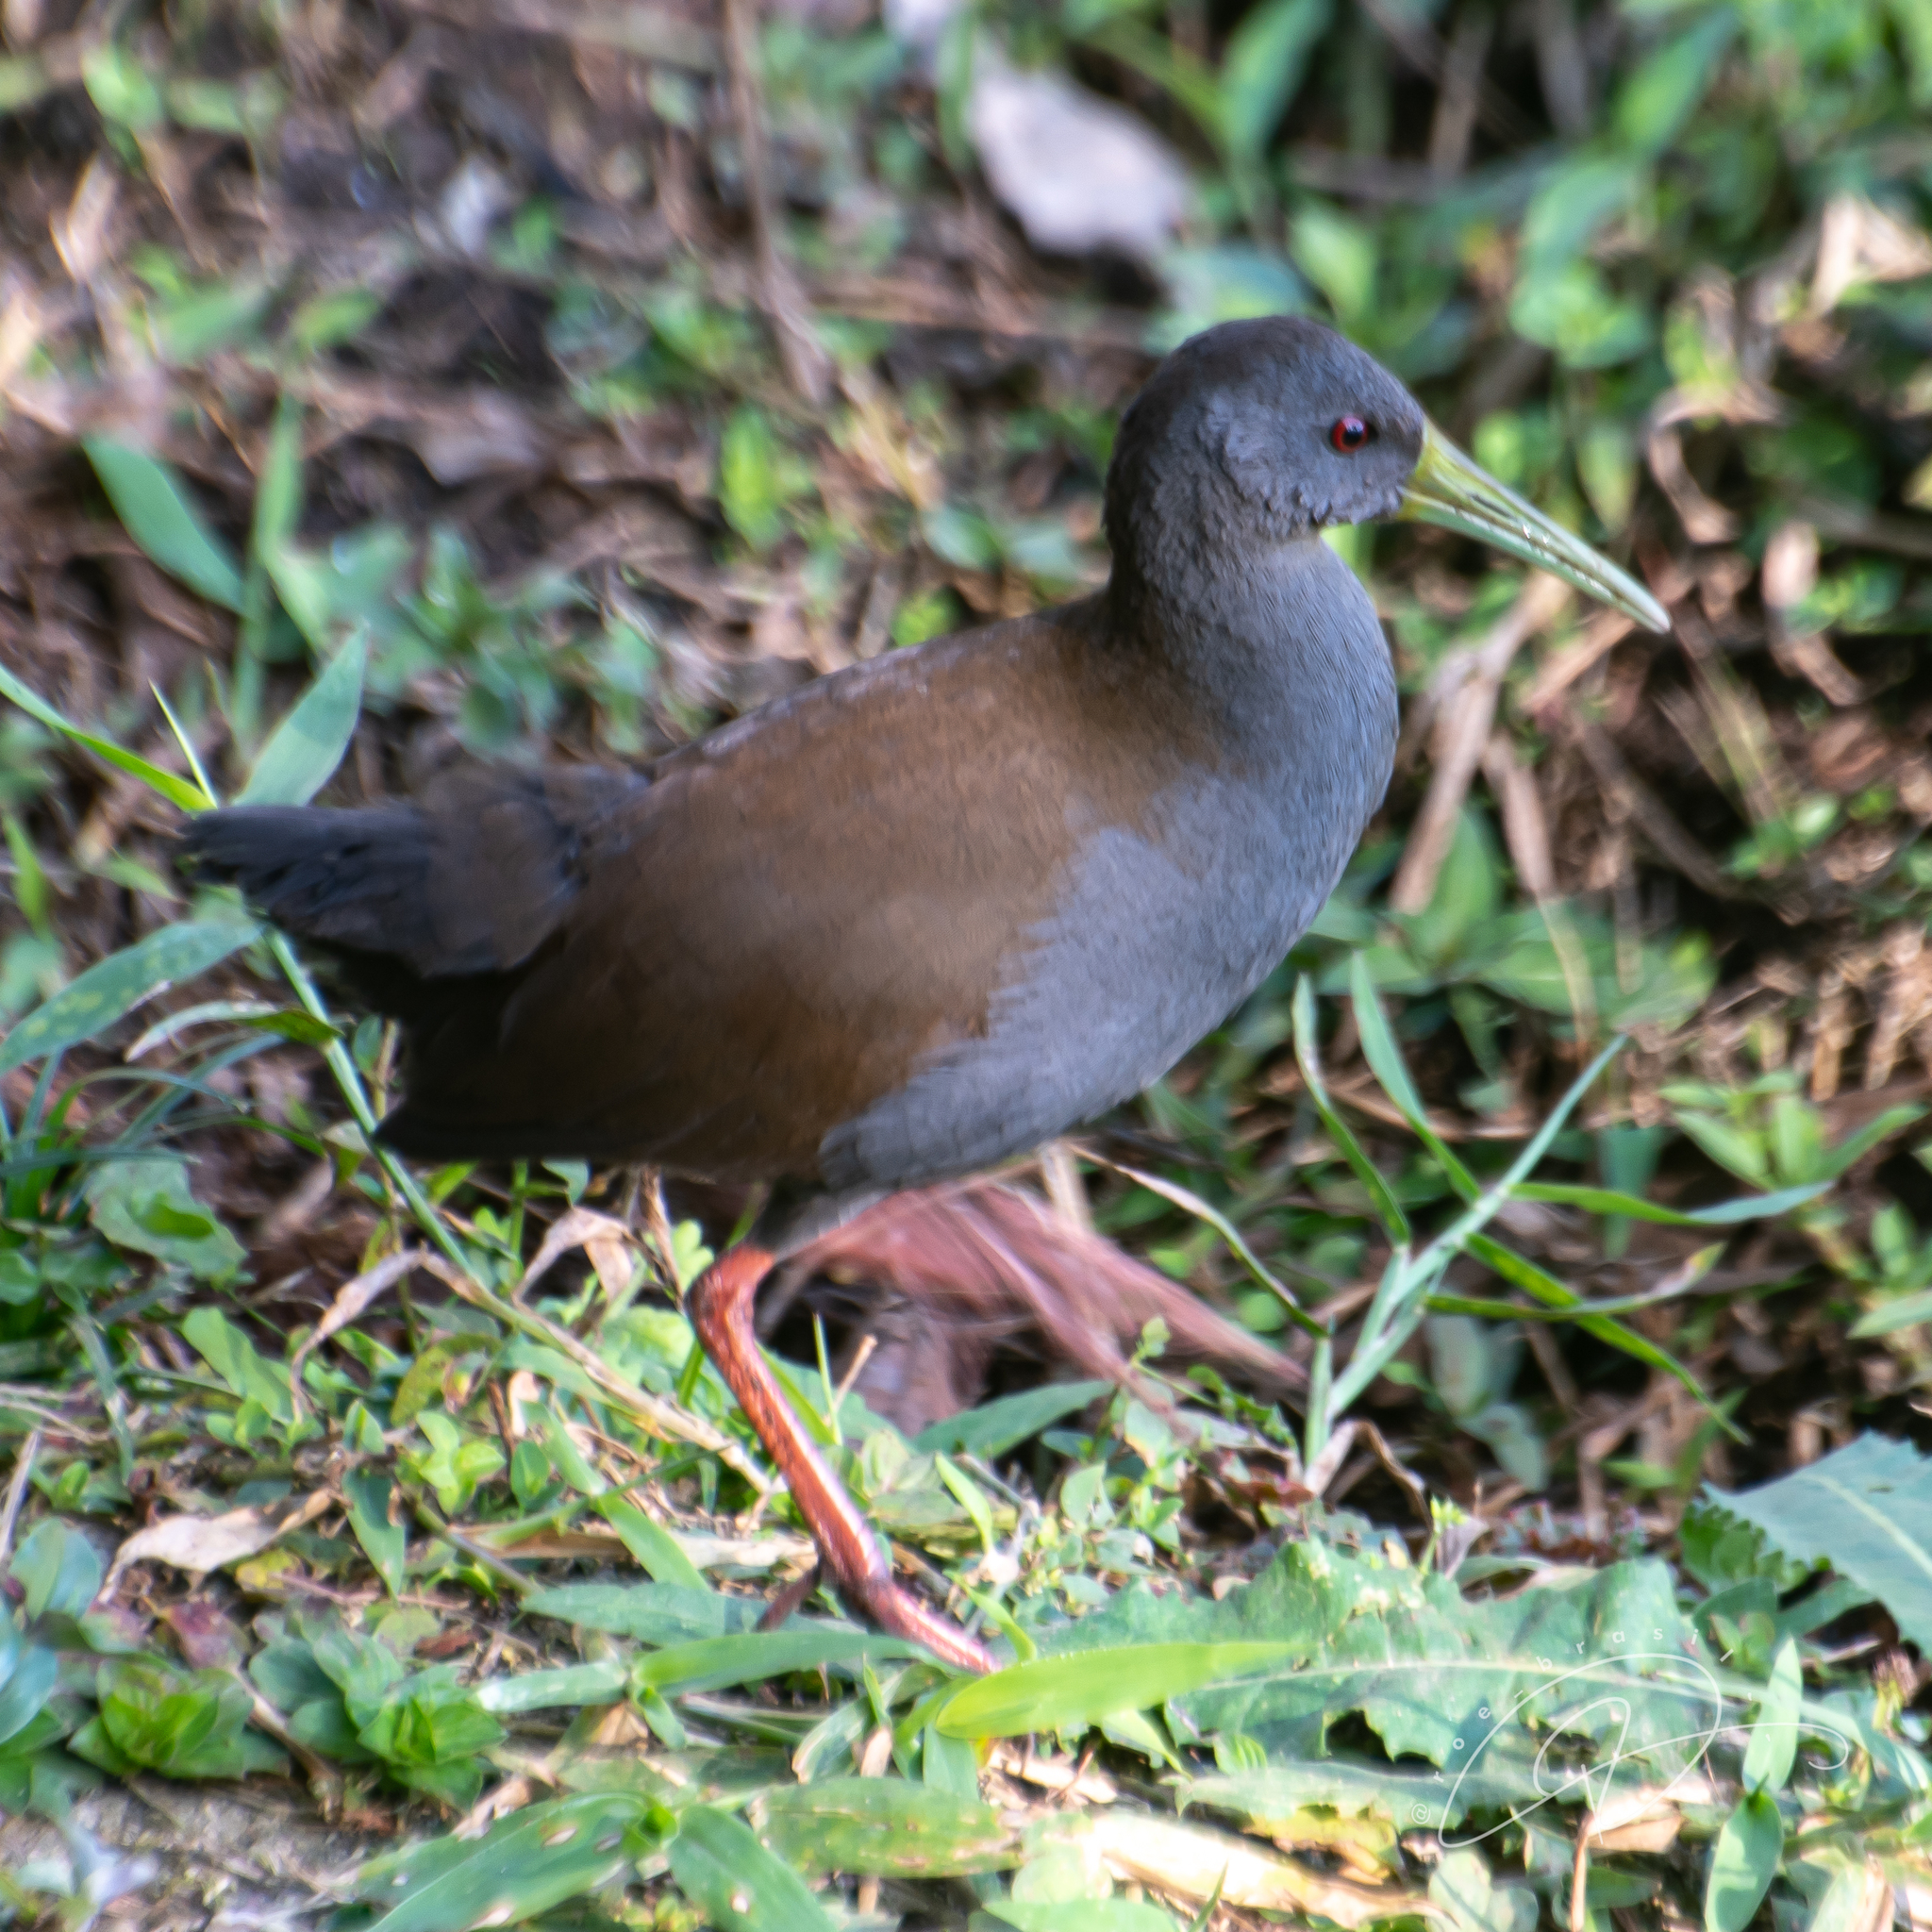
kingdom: Animalia
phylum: Chordata
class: Aves
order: Gruiformes
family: Rallidae
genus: Pardirallus
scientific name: Pardirallus nigricans
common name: Blackish rail
